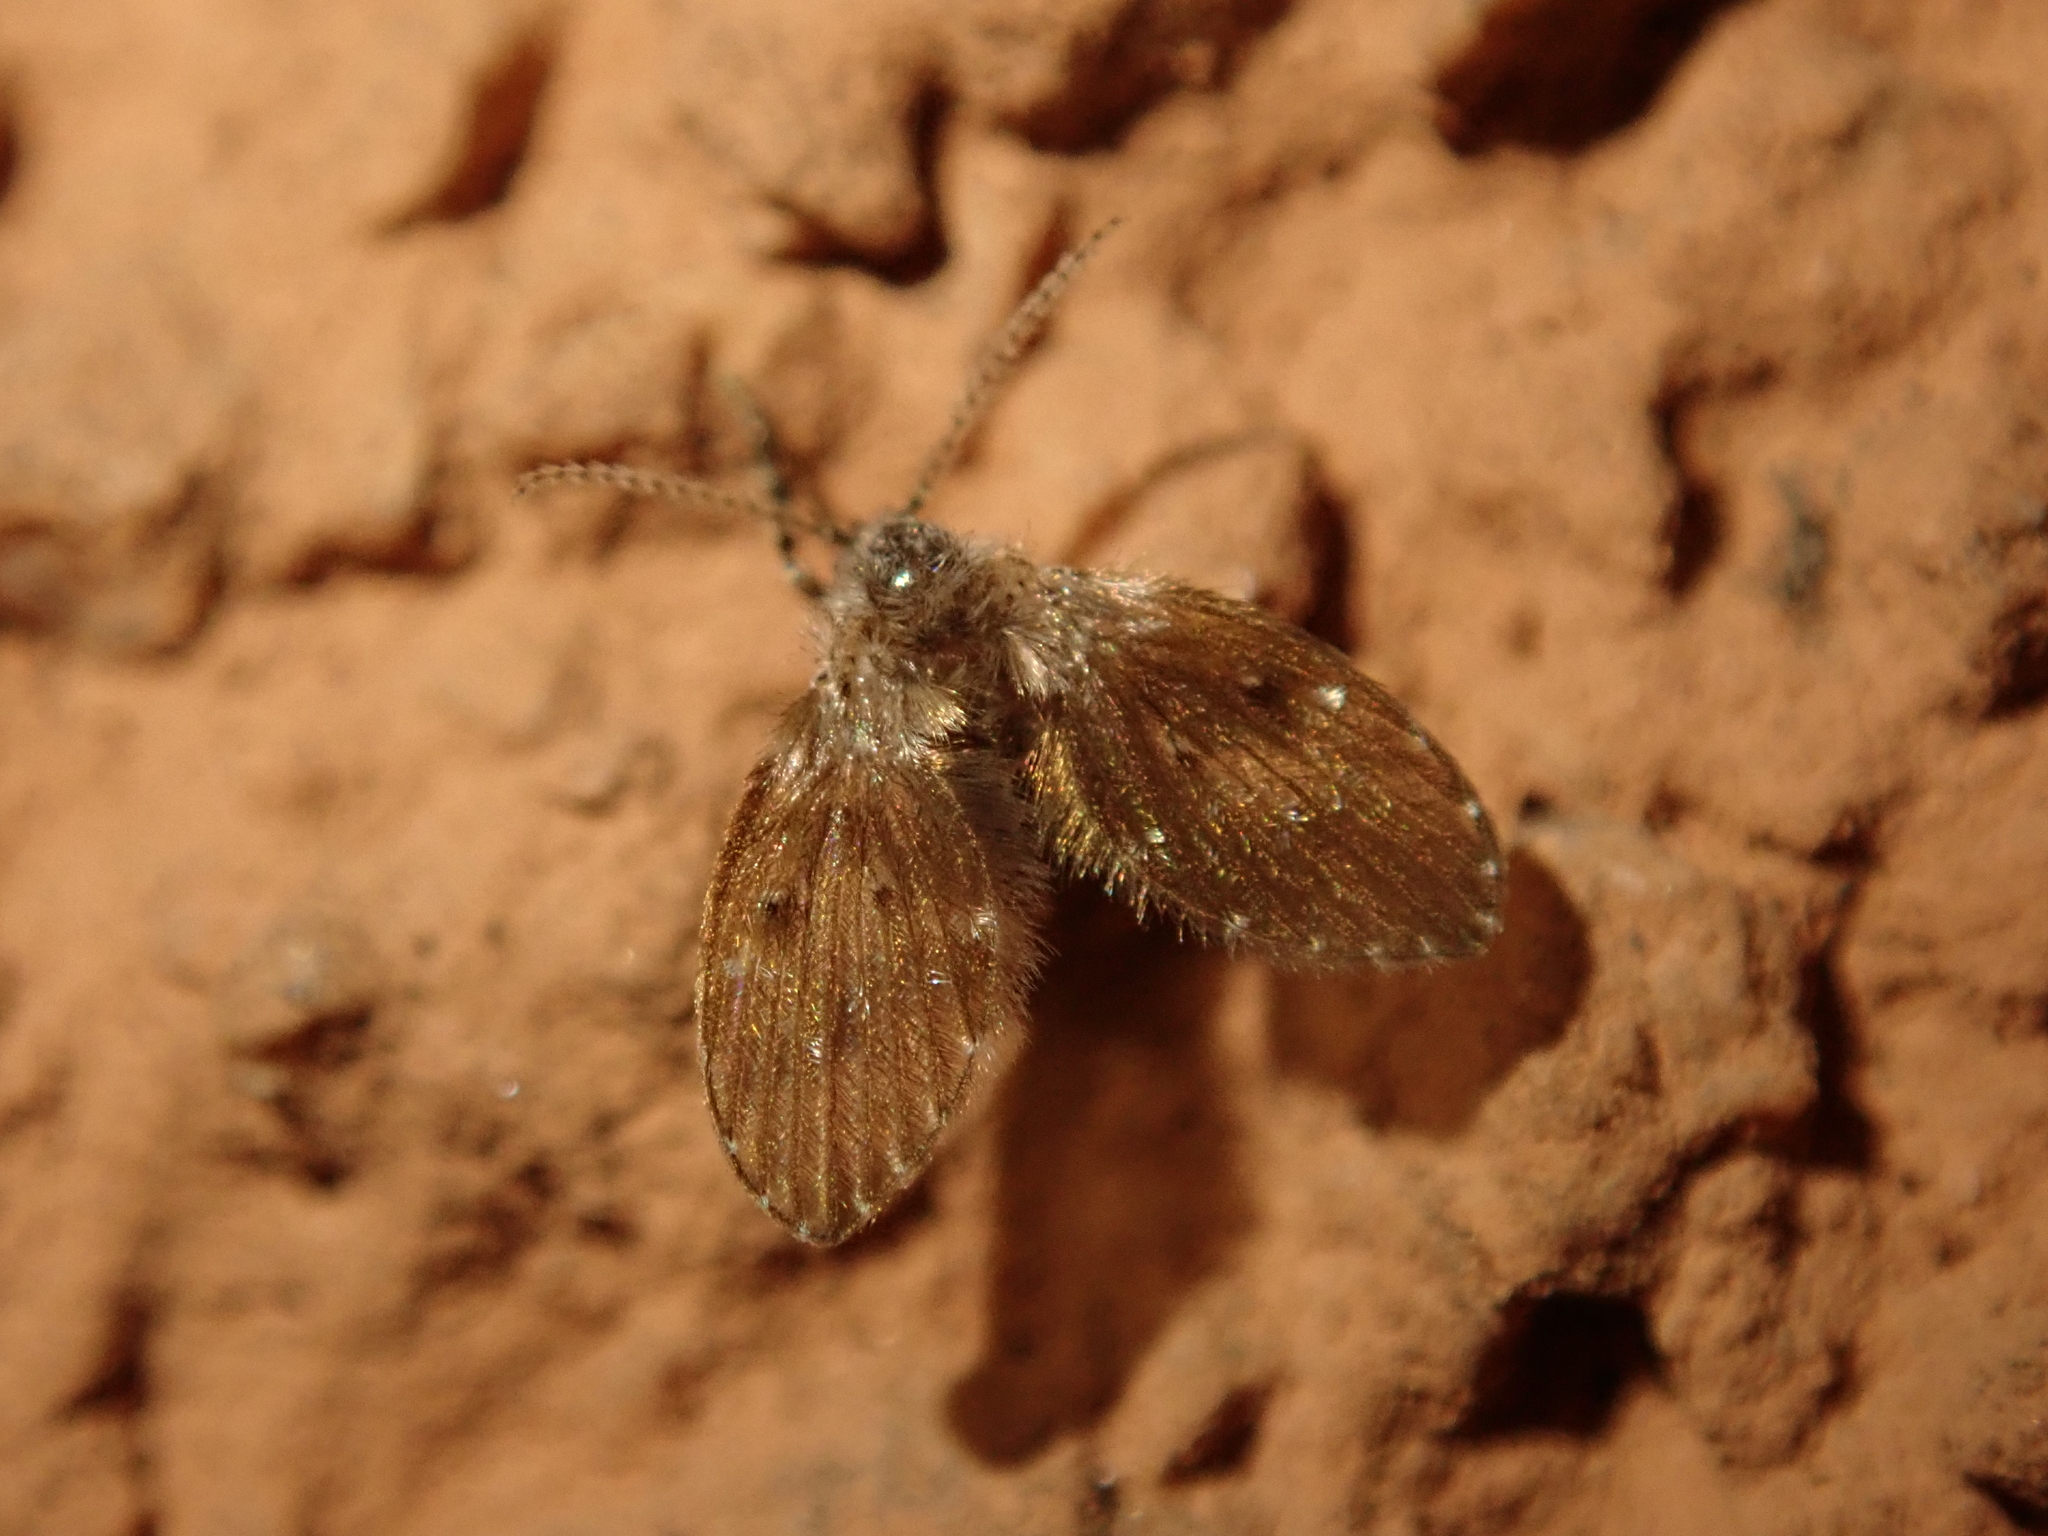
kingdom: Animalia
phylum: Arthropoda
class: Insecta
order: Diptera
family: Psychodidae
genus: Clogmia
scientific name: Clogmia albipunctatus
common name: White-spotted moth fly
